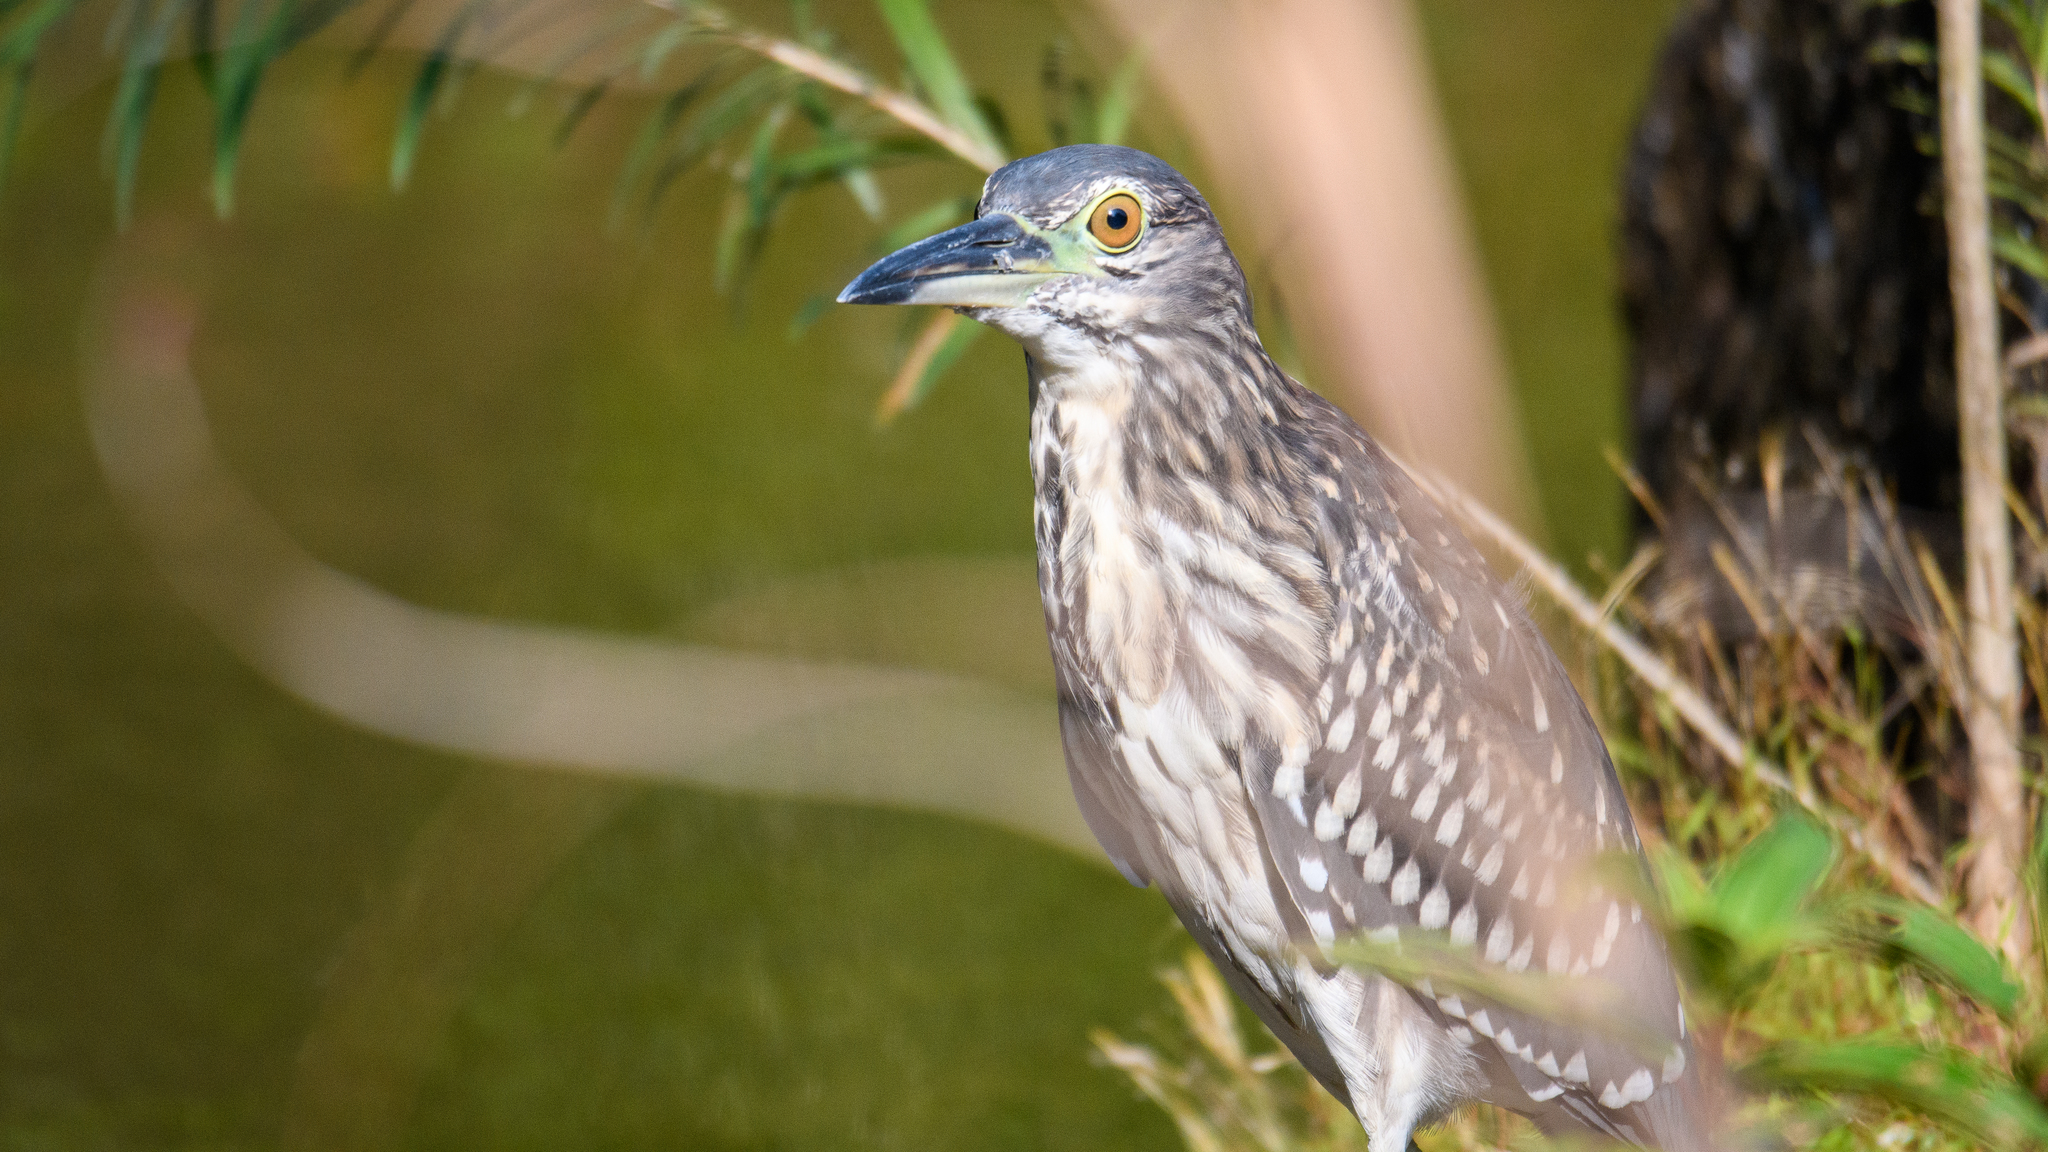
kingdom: Animalia
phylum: Chordata
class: Aves
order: Pelecaniformes
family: Ardeidae
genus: Nycticorax
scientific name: Nycticorax nycticorax
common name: Black-crowned night heron
